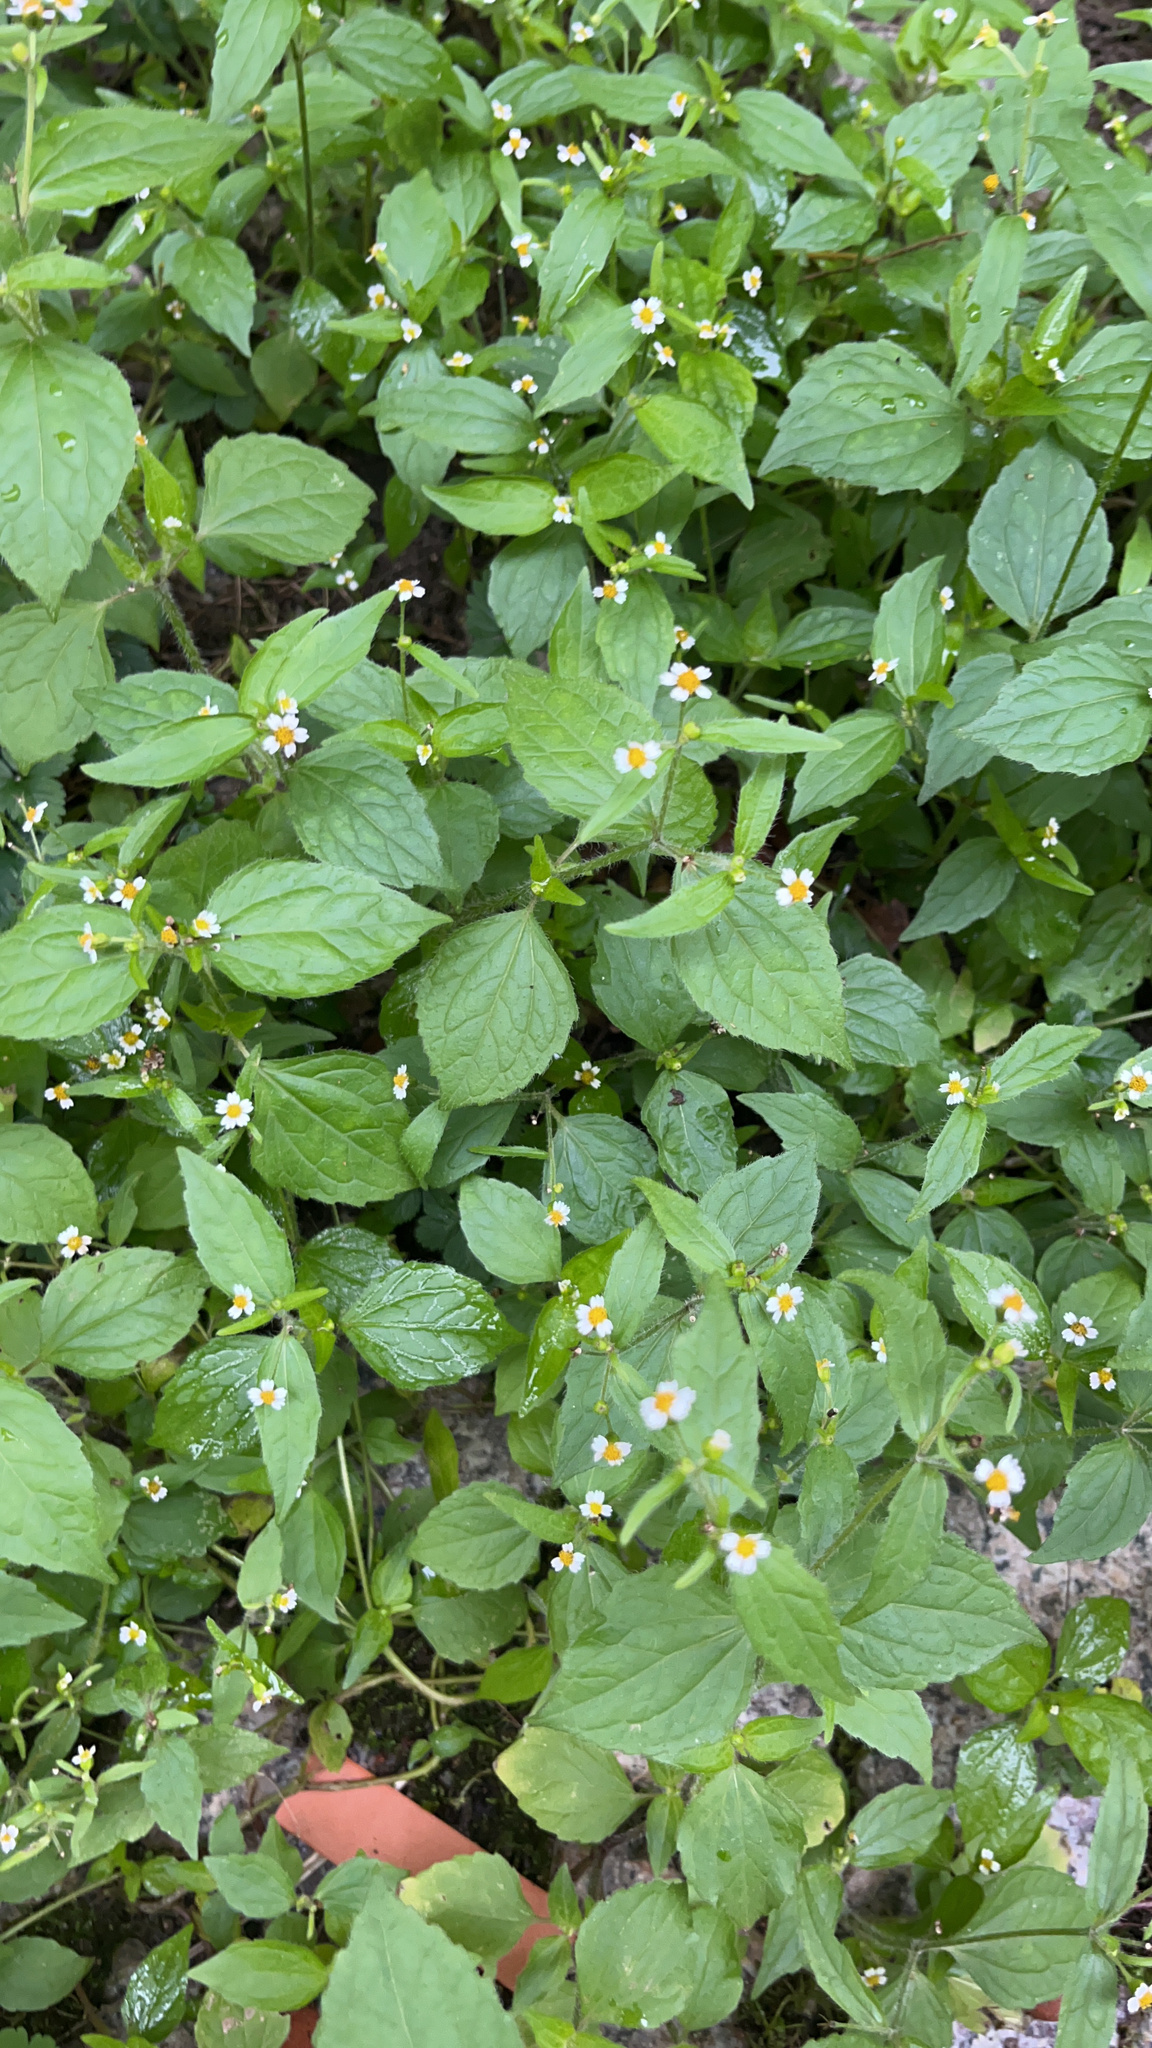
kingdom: Plantae
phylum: Tracheophyta
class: Magnoliopsida
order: Asterales
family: Asteraceae
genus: Galinsoga
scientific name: Galinsoga quadriradiata
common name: Shaggy soldier
